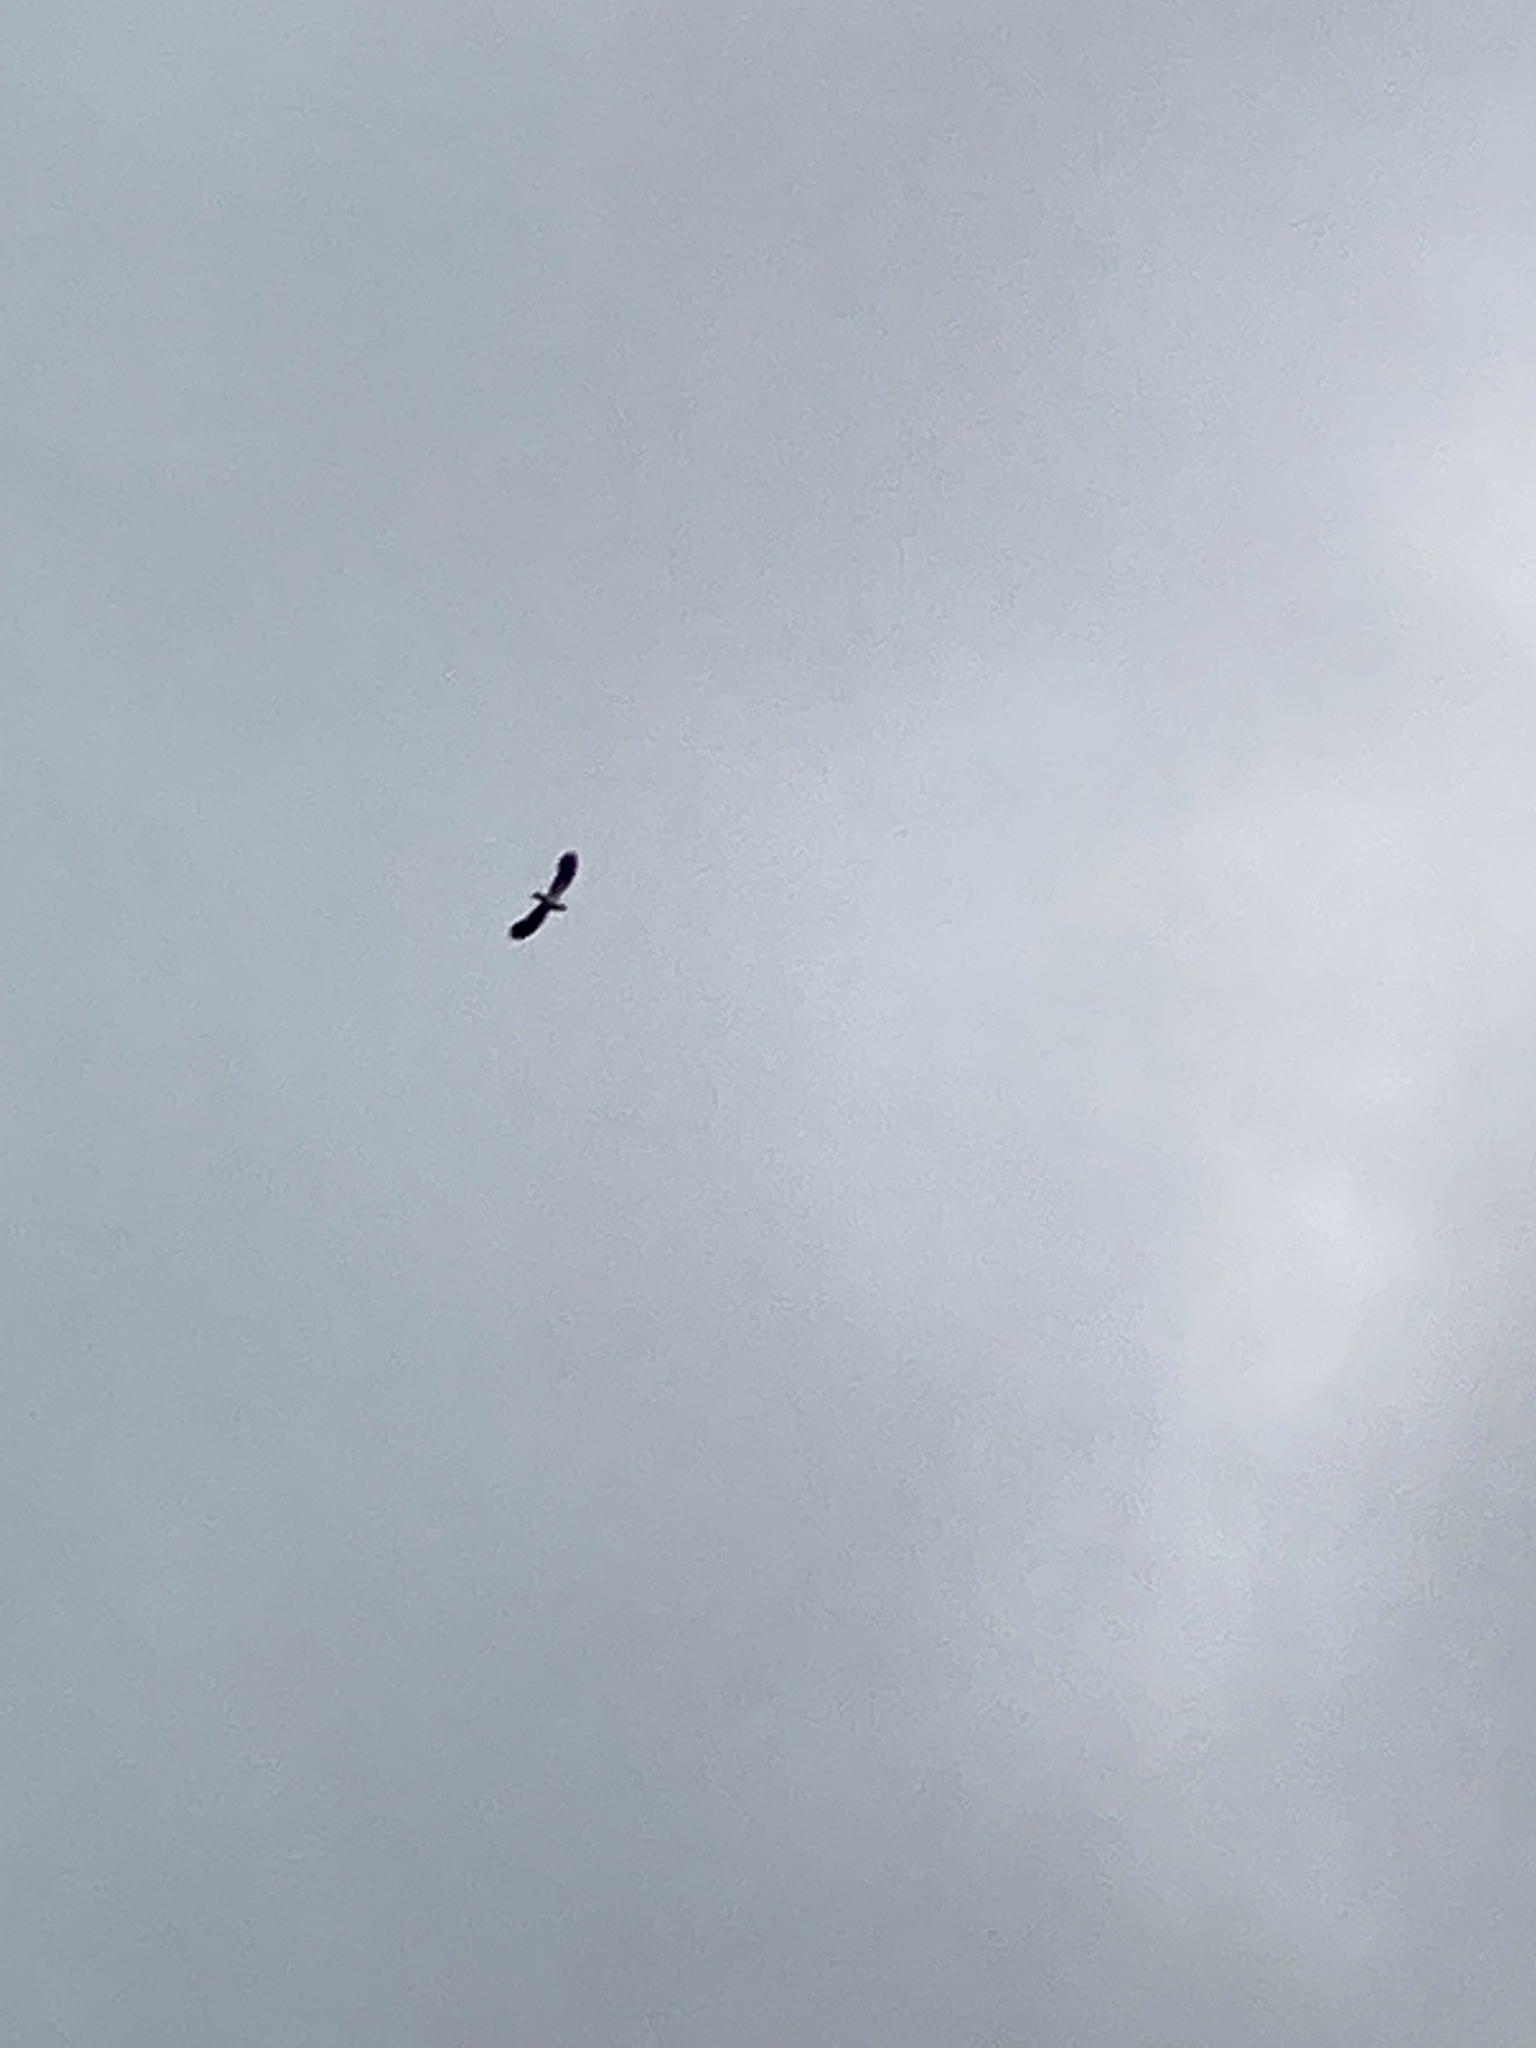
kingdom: Animalia
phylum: Chordata
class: Aves
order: Charadriiformes
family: Charadriidae
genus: Vanellus
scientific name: Vanellus vanellus
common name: Northern lapwing
